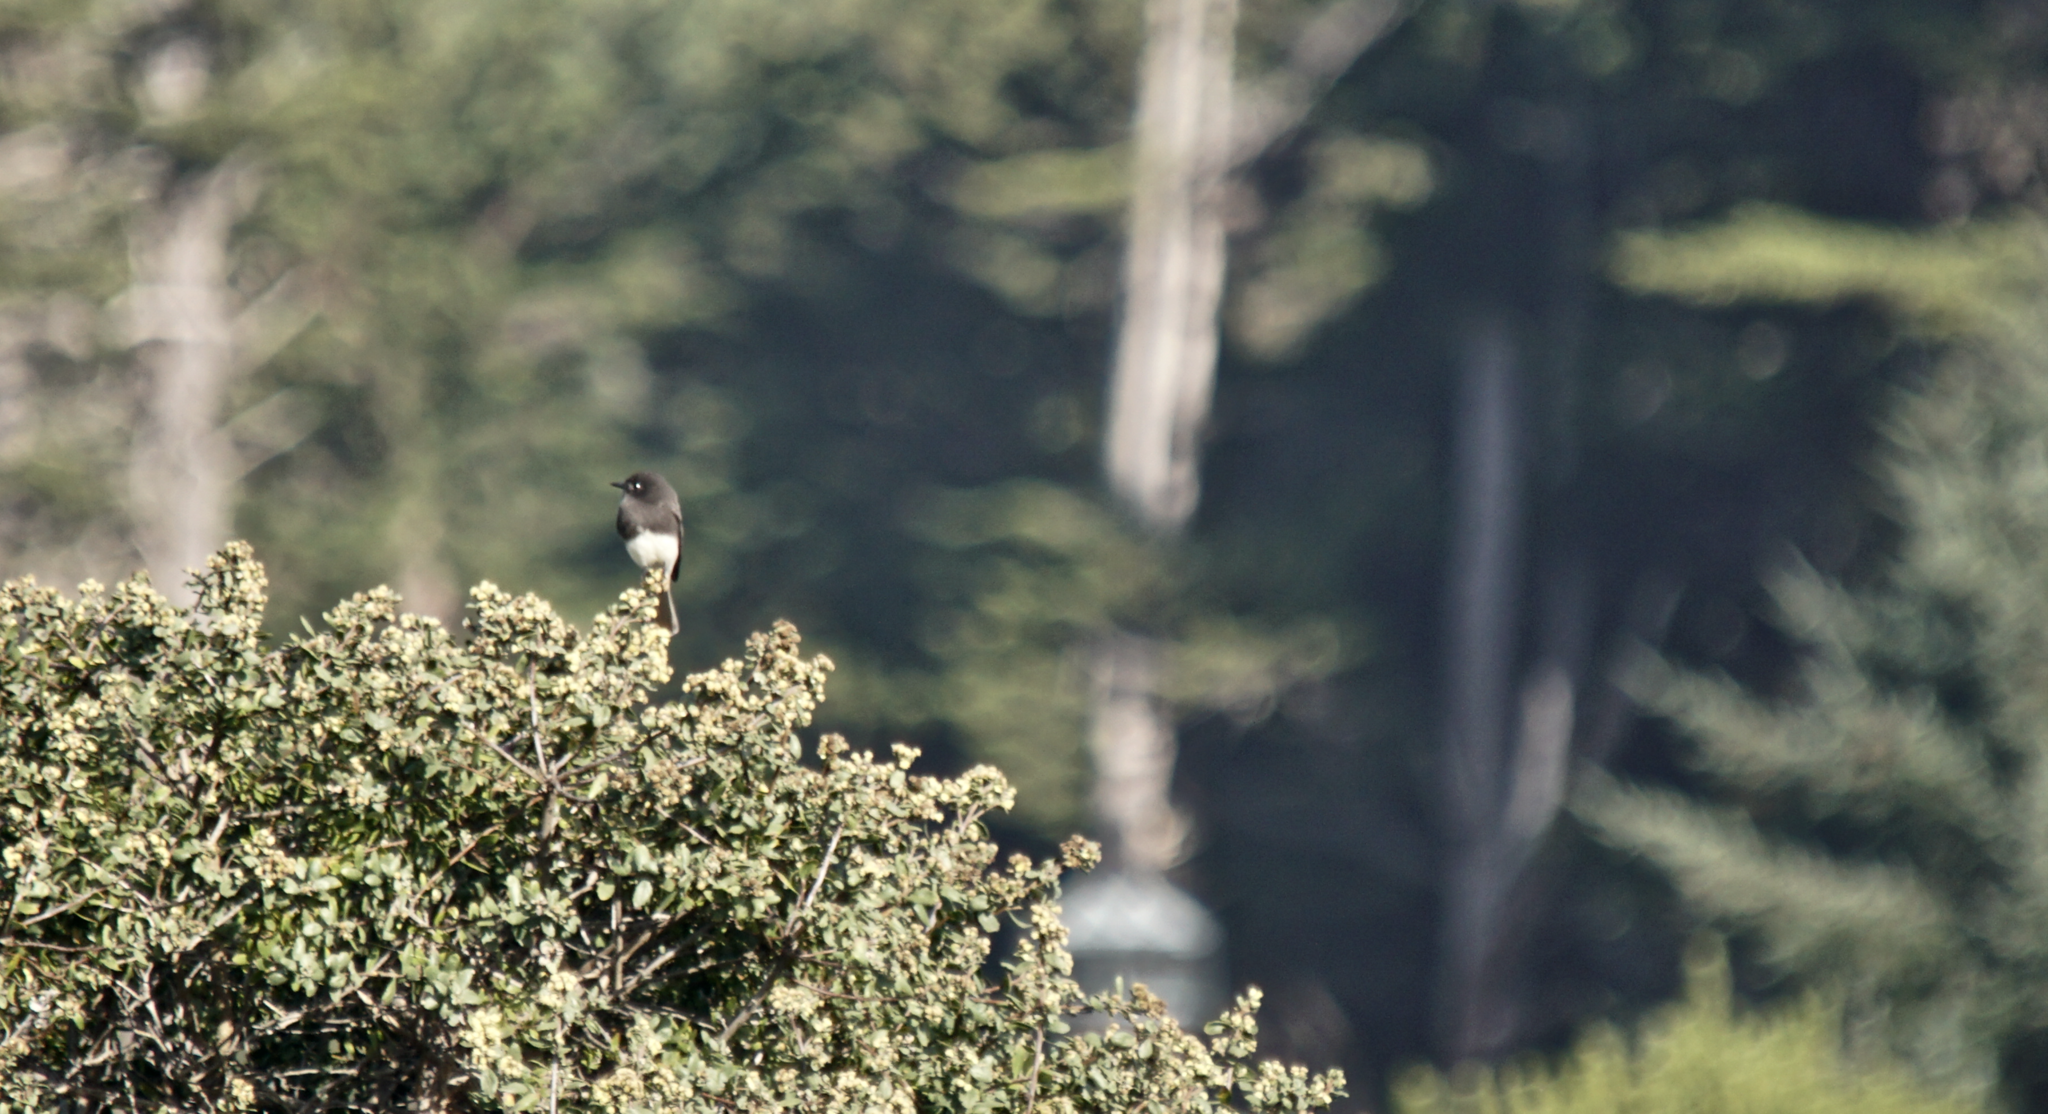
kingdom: Animalia
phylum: Chordata
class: Aves
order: Passeriformes
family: Tyrannidae
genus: Sayornis
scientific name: Sayornis nigricans
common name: Black phoebe
